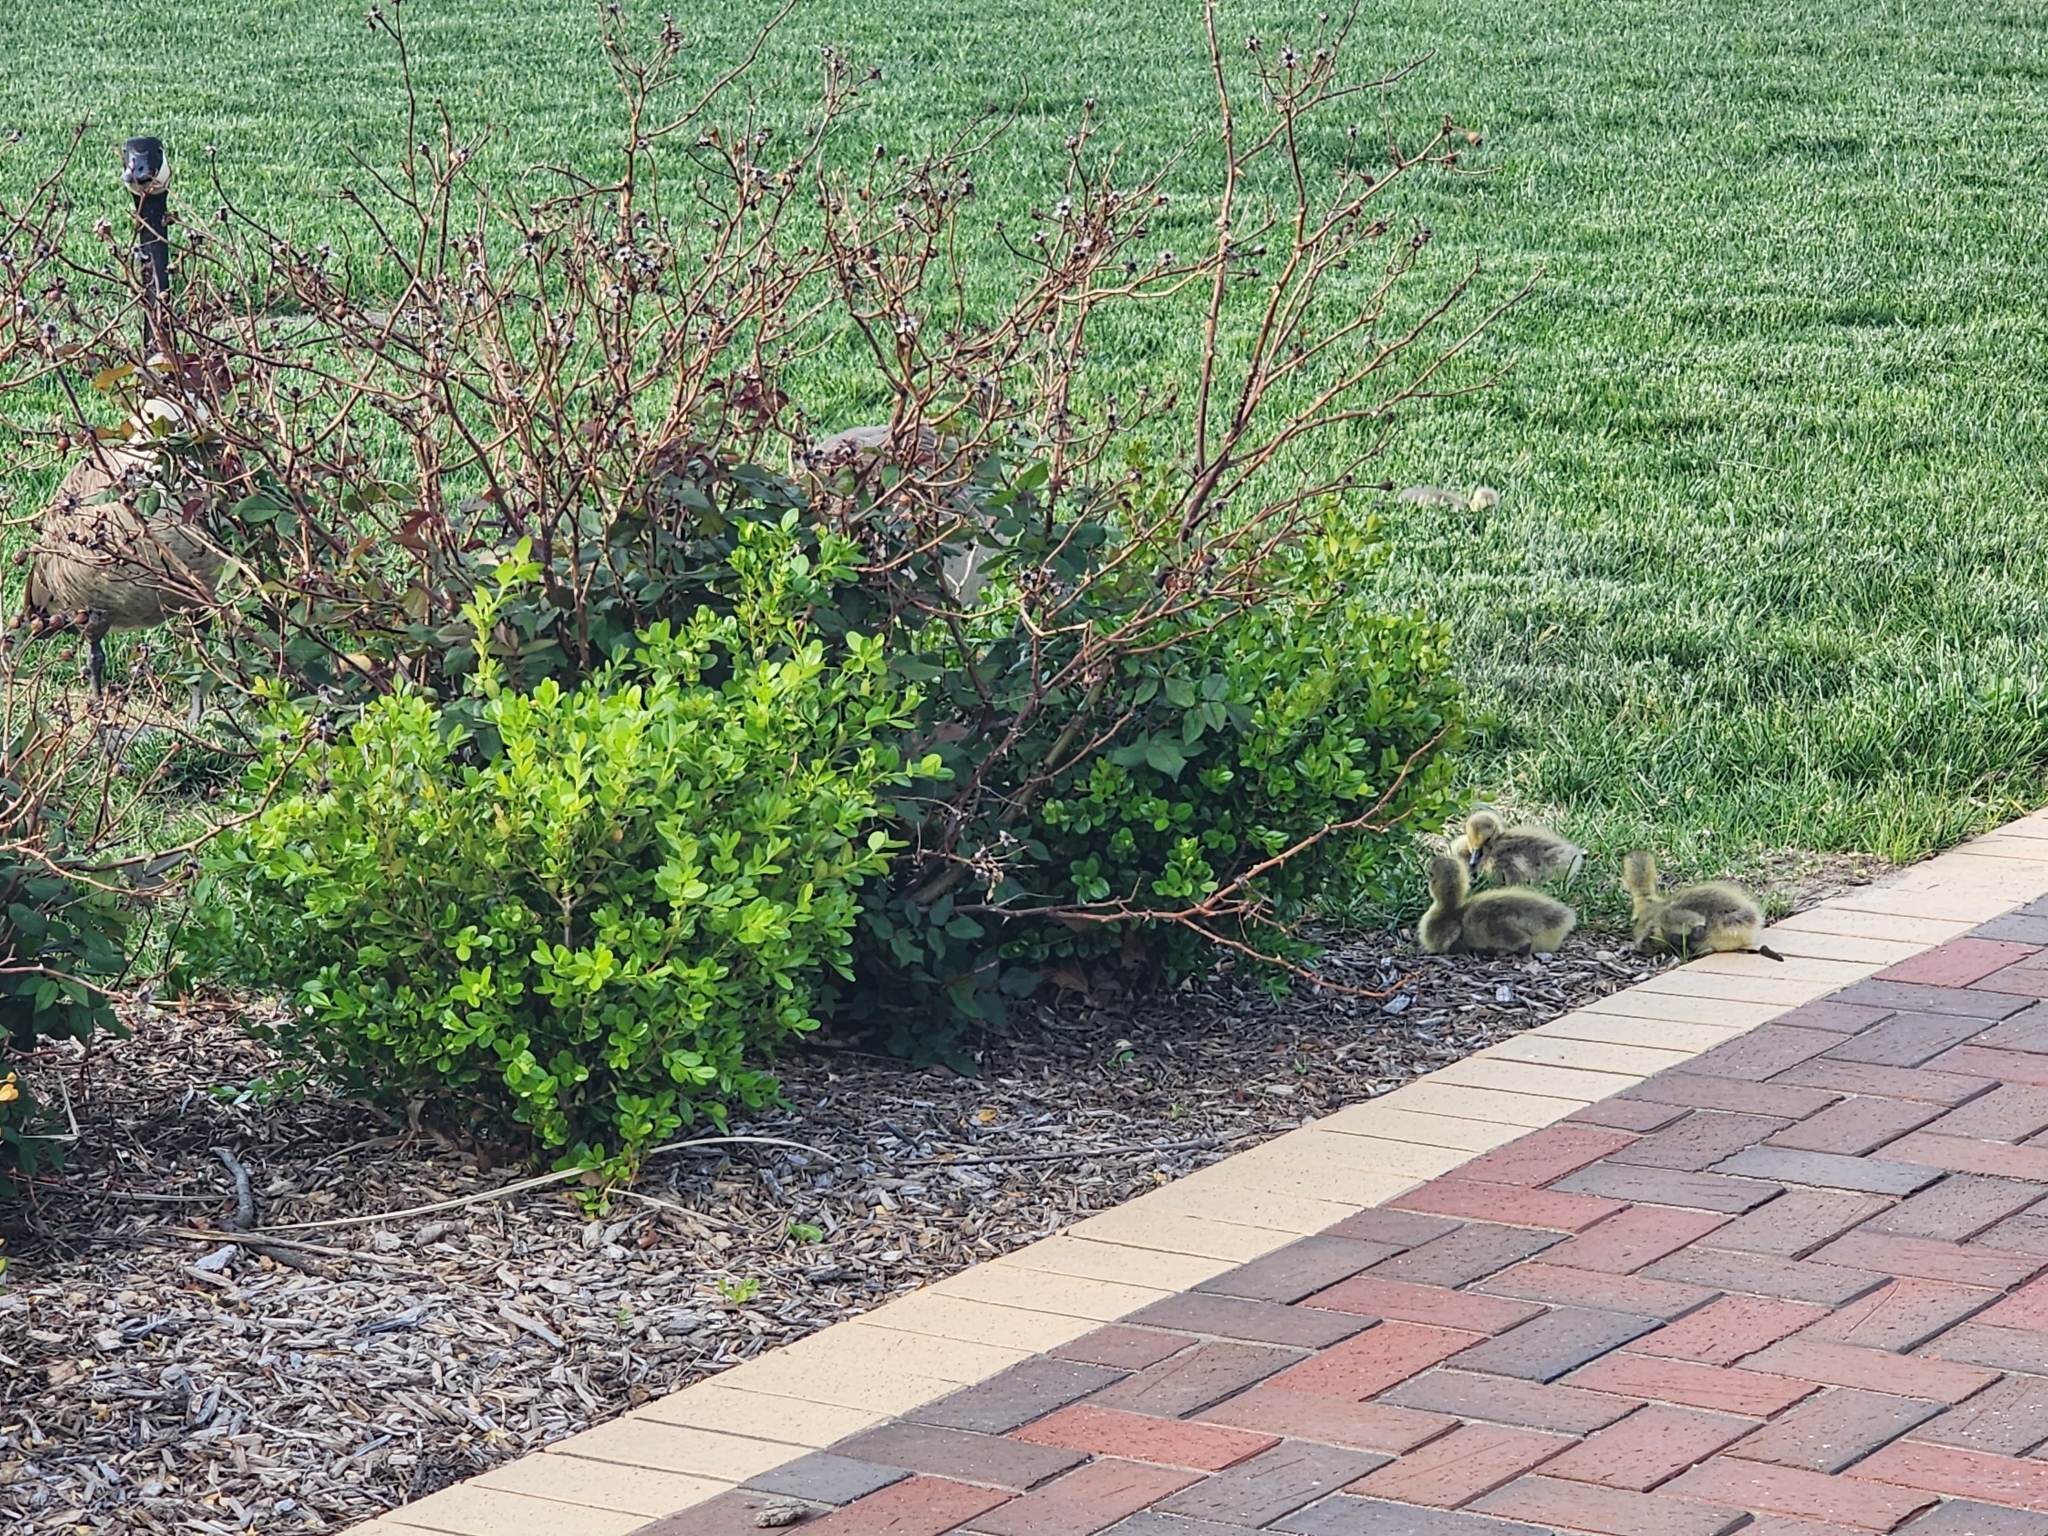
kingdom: Animalia
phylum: Chordata
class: Aves
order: Anseriformes
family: Anatidae
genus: Branta
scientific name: Branta canadensis
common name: Canada goose
